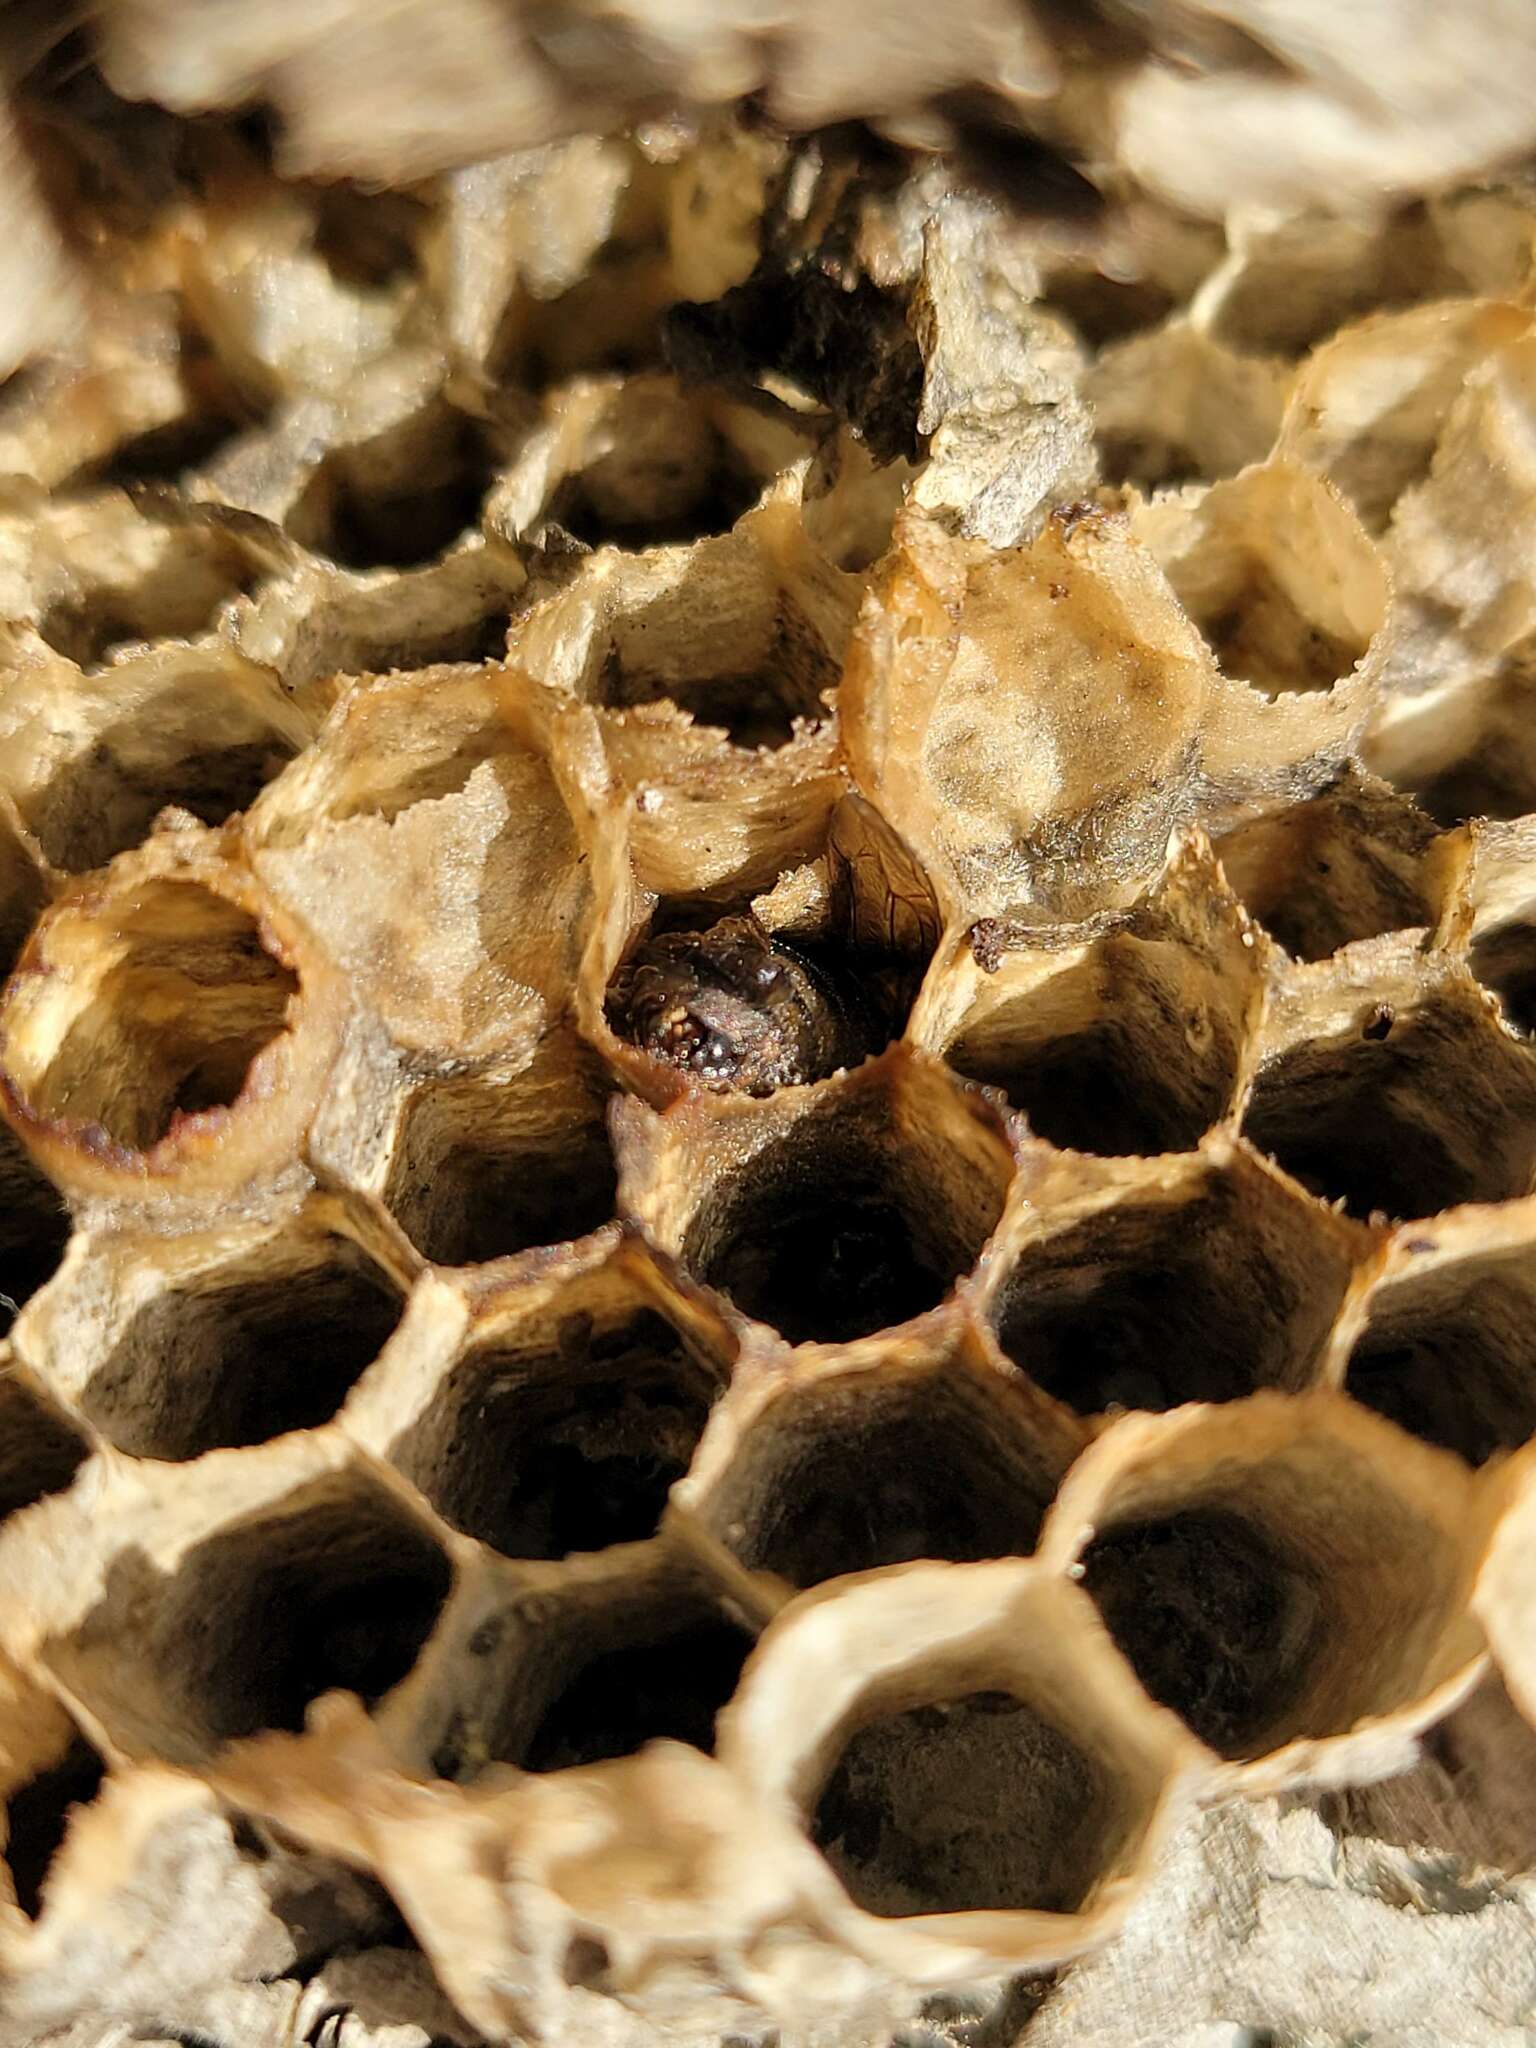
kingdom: Animalia
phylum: Arthropoda
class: Insecta
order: Hymenoptera
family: Vespidae
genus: Dolichovespula
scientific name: Dolichovespula maculata
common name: Bald-faced hornet
